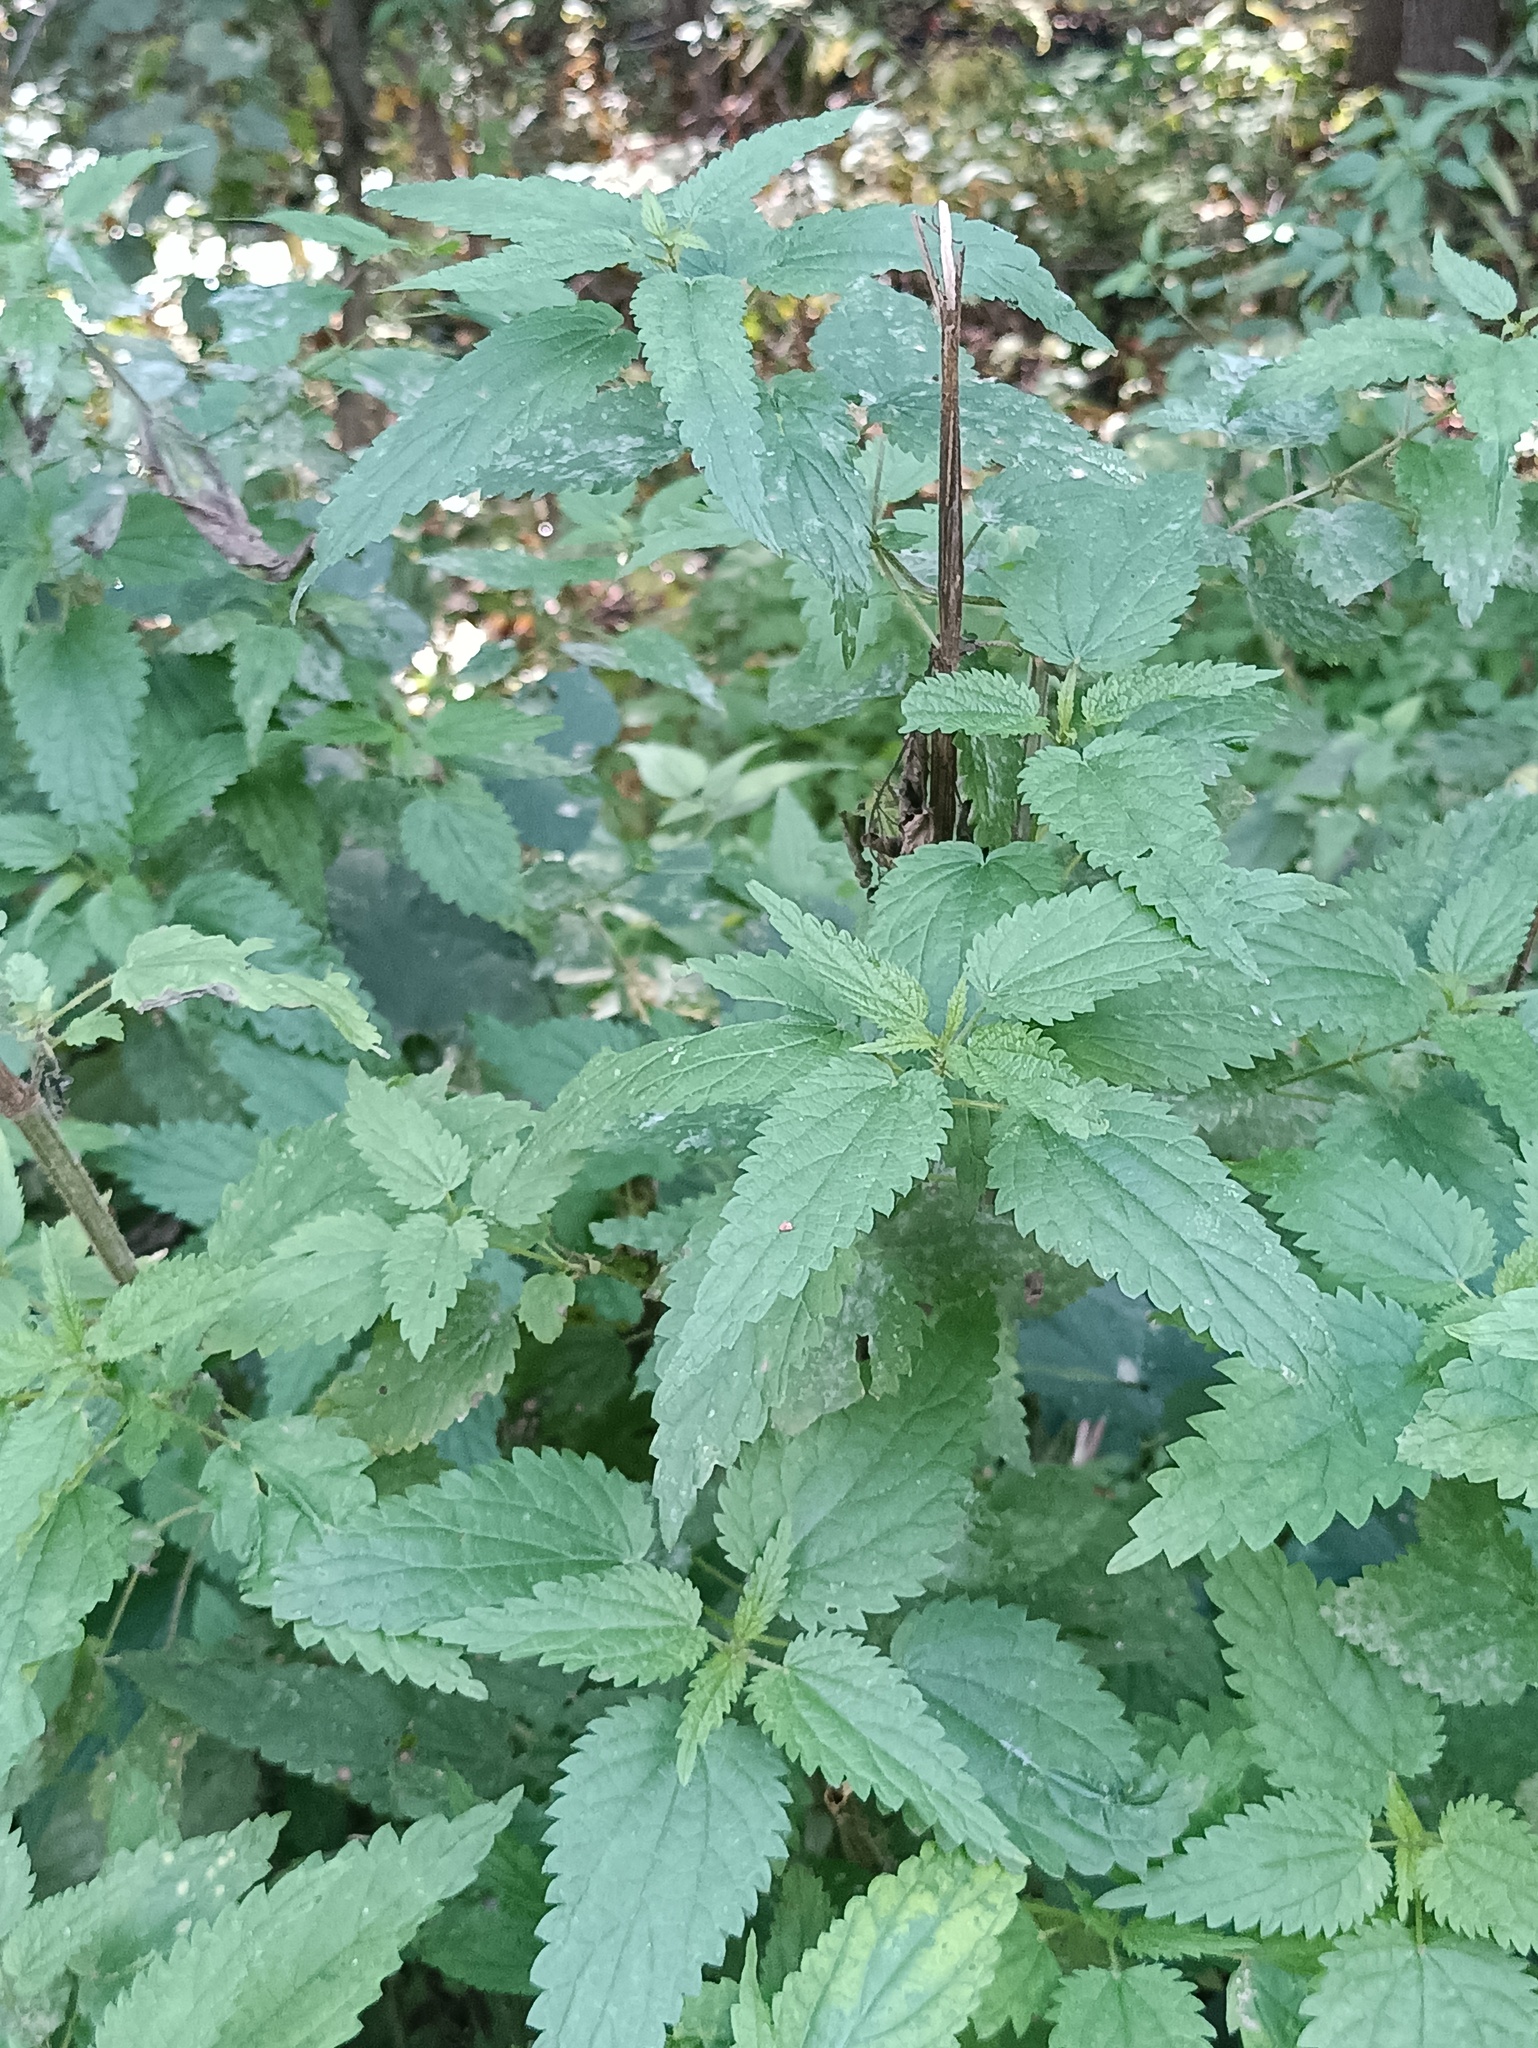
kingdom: Plantae
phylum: Tracheophyta
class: Magnoliopsida
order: Rosales
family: Urticaceae
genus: Urtica
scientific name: Urtica dioica
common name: Common nettle
